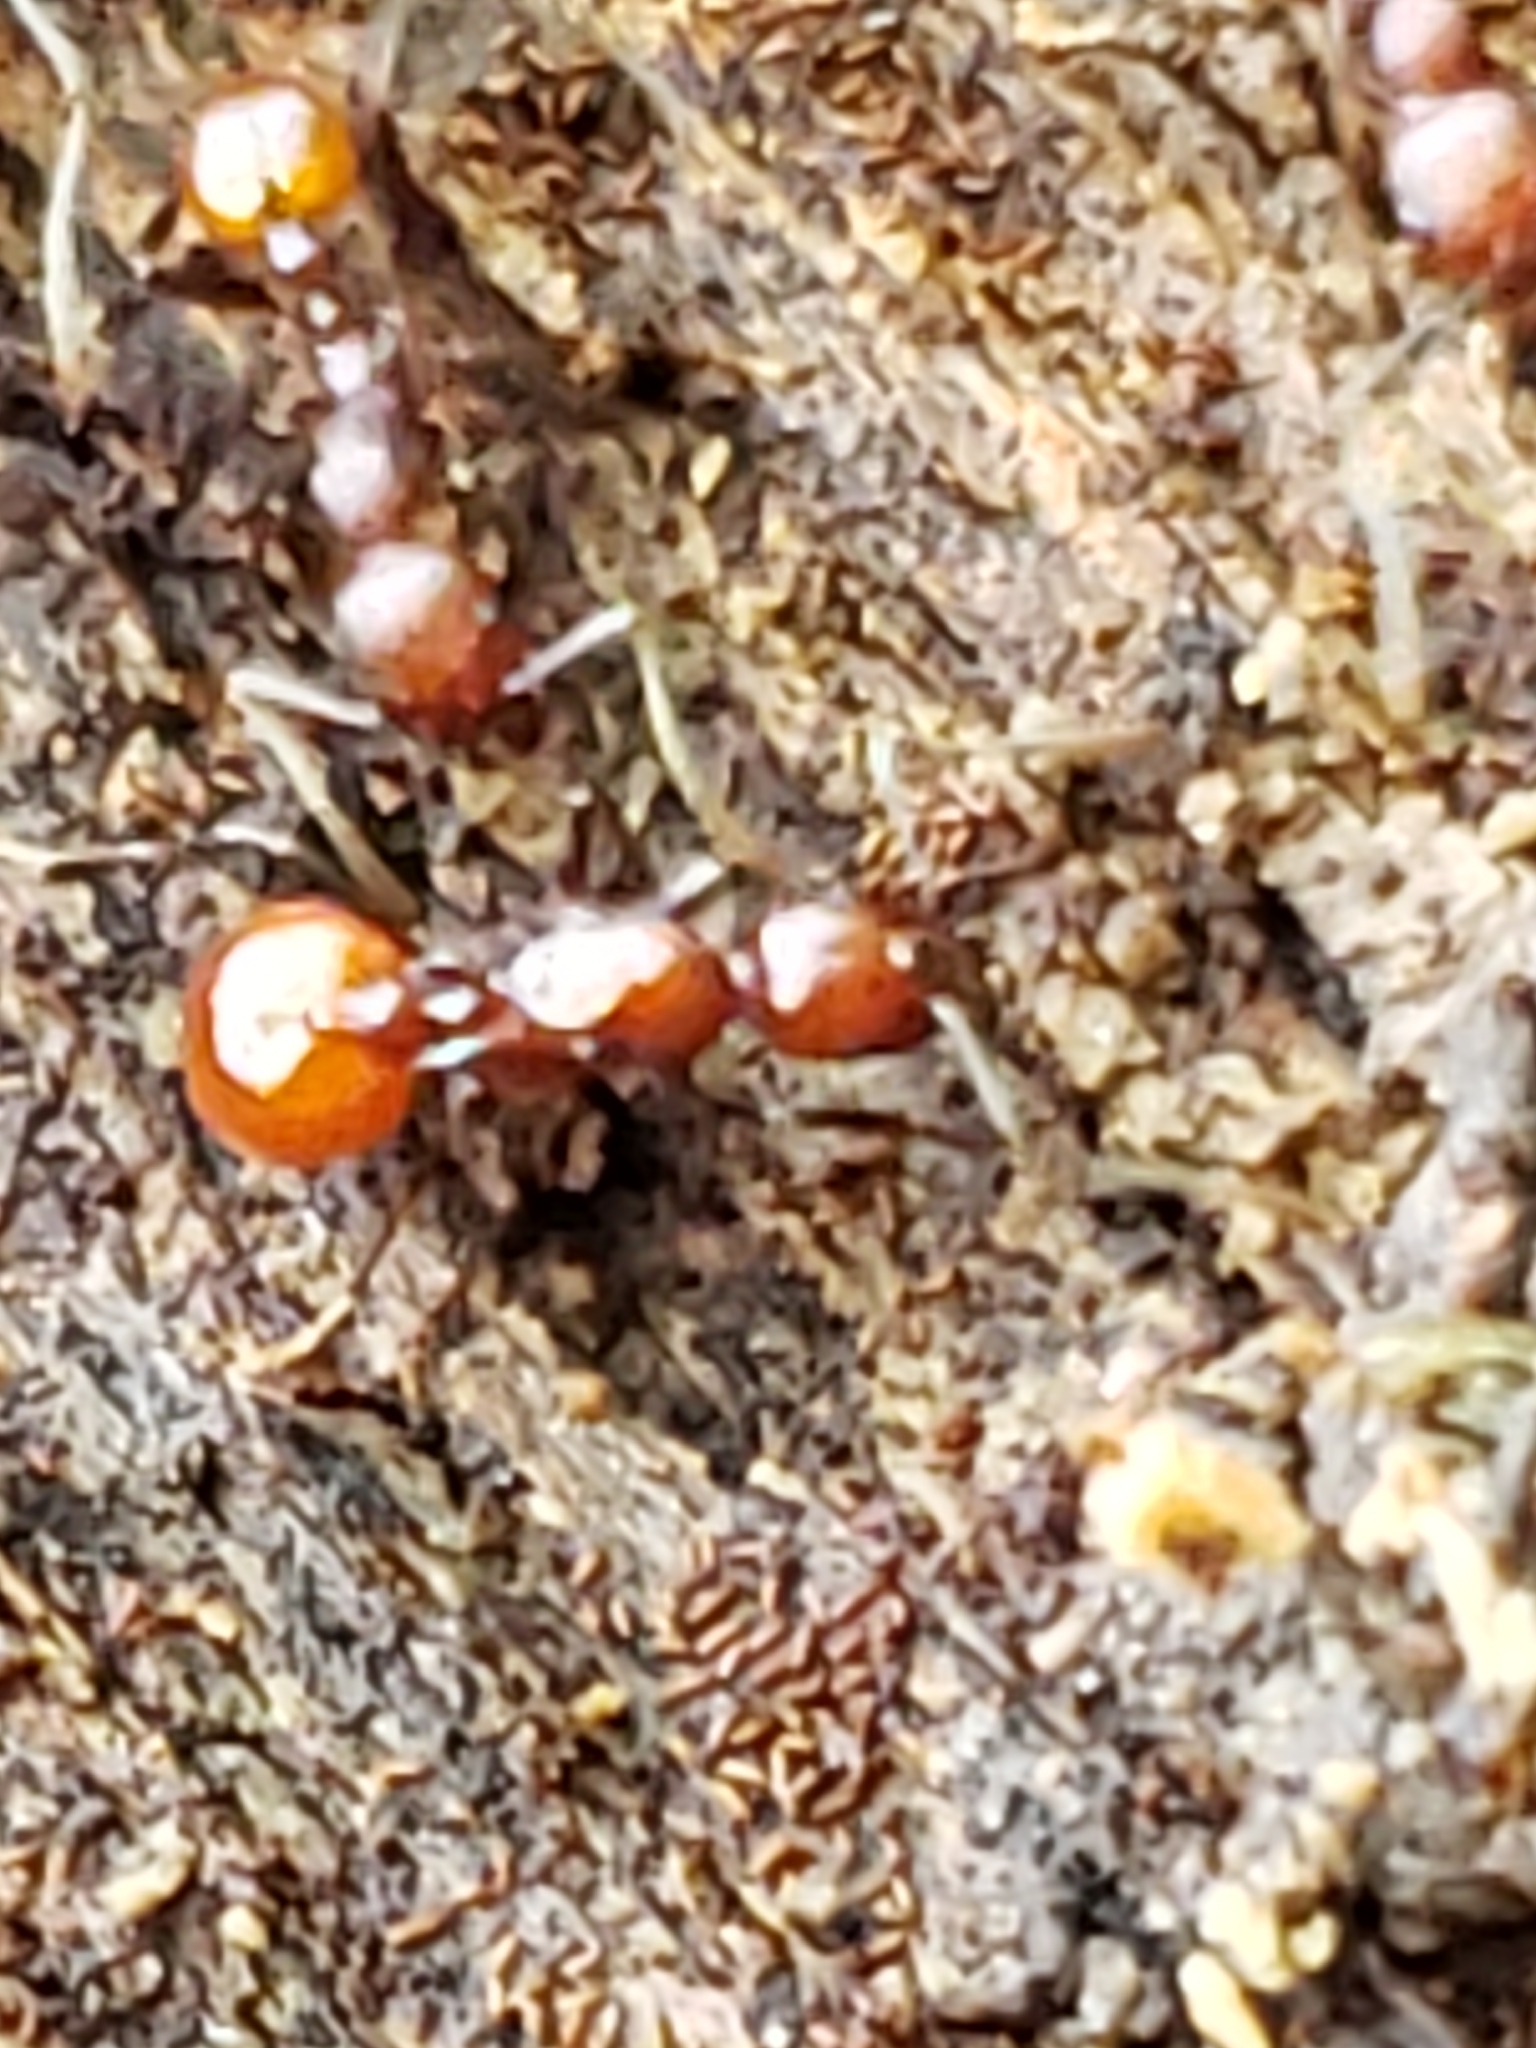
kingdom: Animalia
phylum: Arthropoda
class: Insecta
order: Hymenoptera
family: Formicidae
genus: Aphaenogaster
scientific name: Aphaenogaster tennesseensis
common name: Tennessee thread-waisted ant
